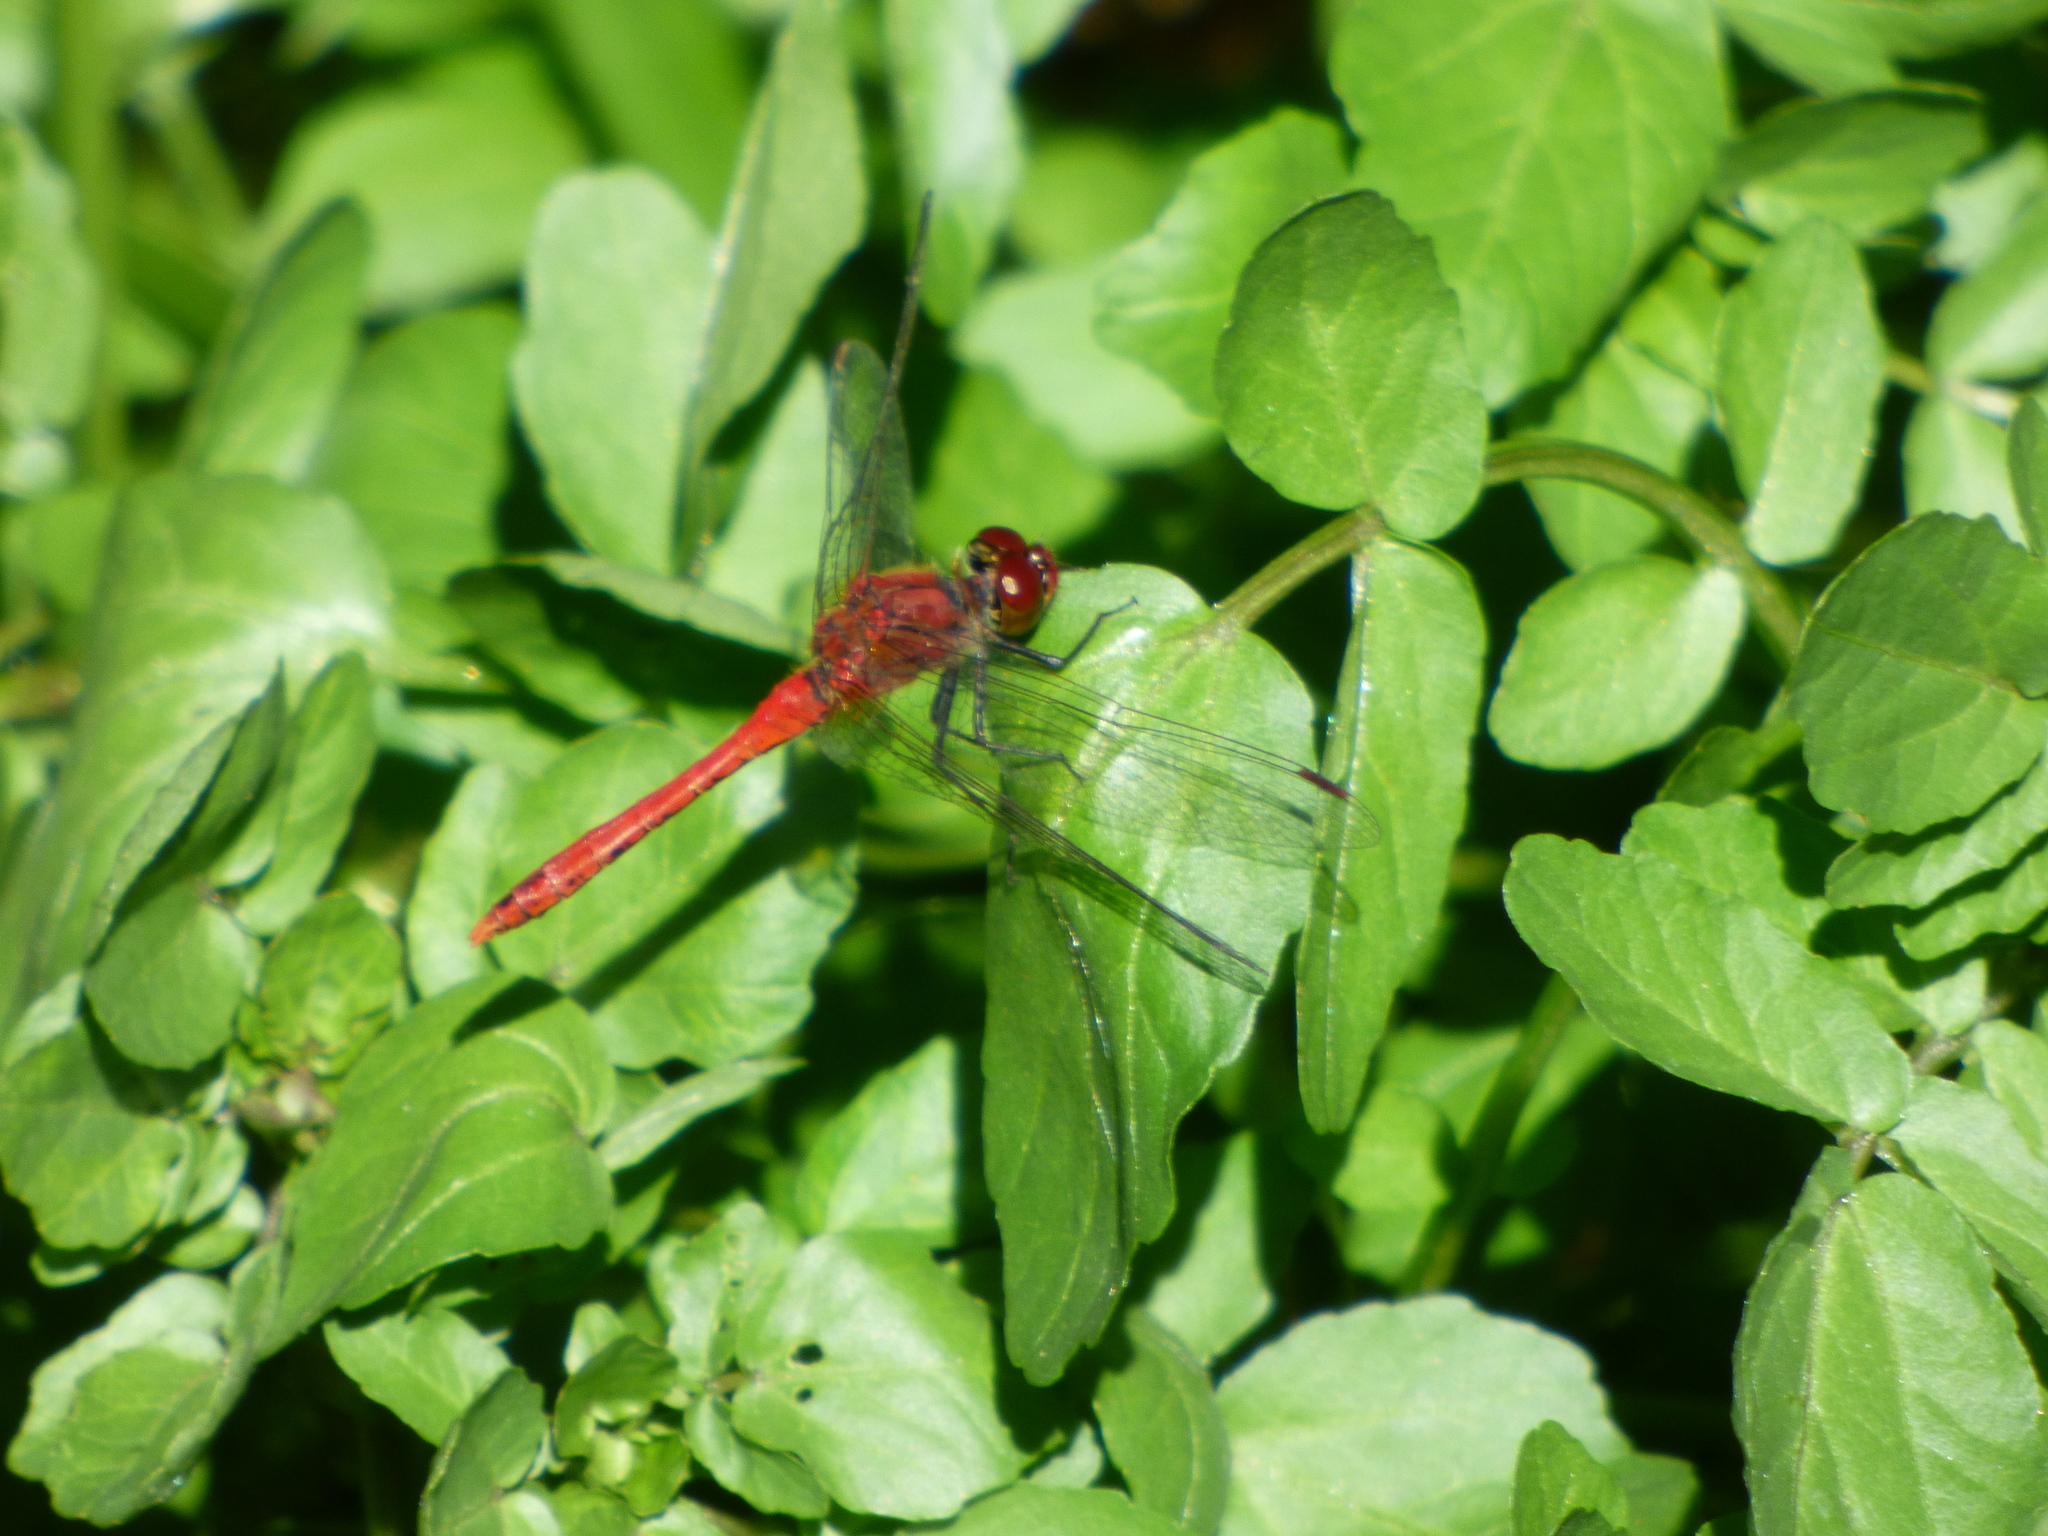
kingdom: Animalia
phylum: Arthropoda
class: Insecta
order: Odonata
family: Libellulidae
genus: Sympetrum
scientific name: Sympetrum sanguineum
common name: Ruddy darter
